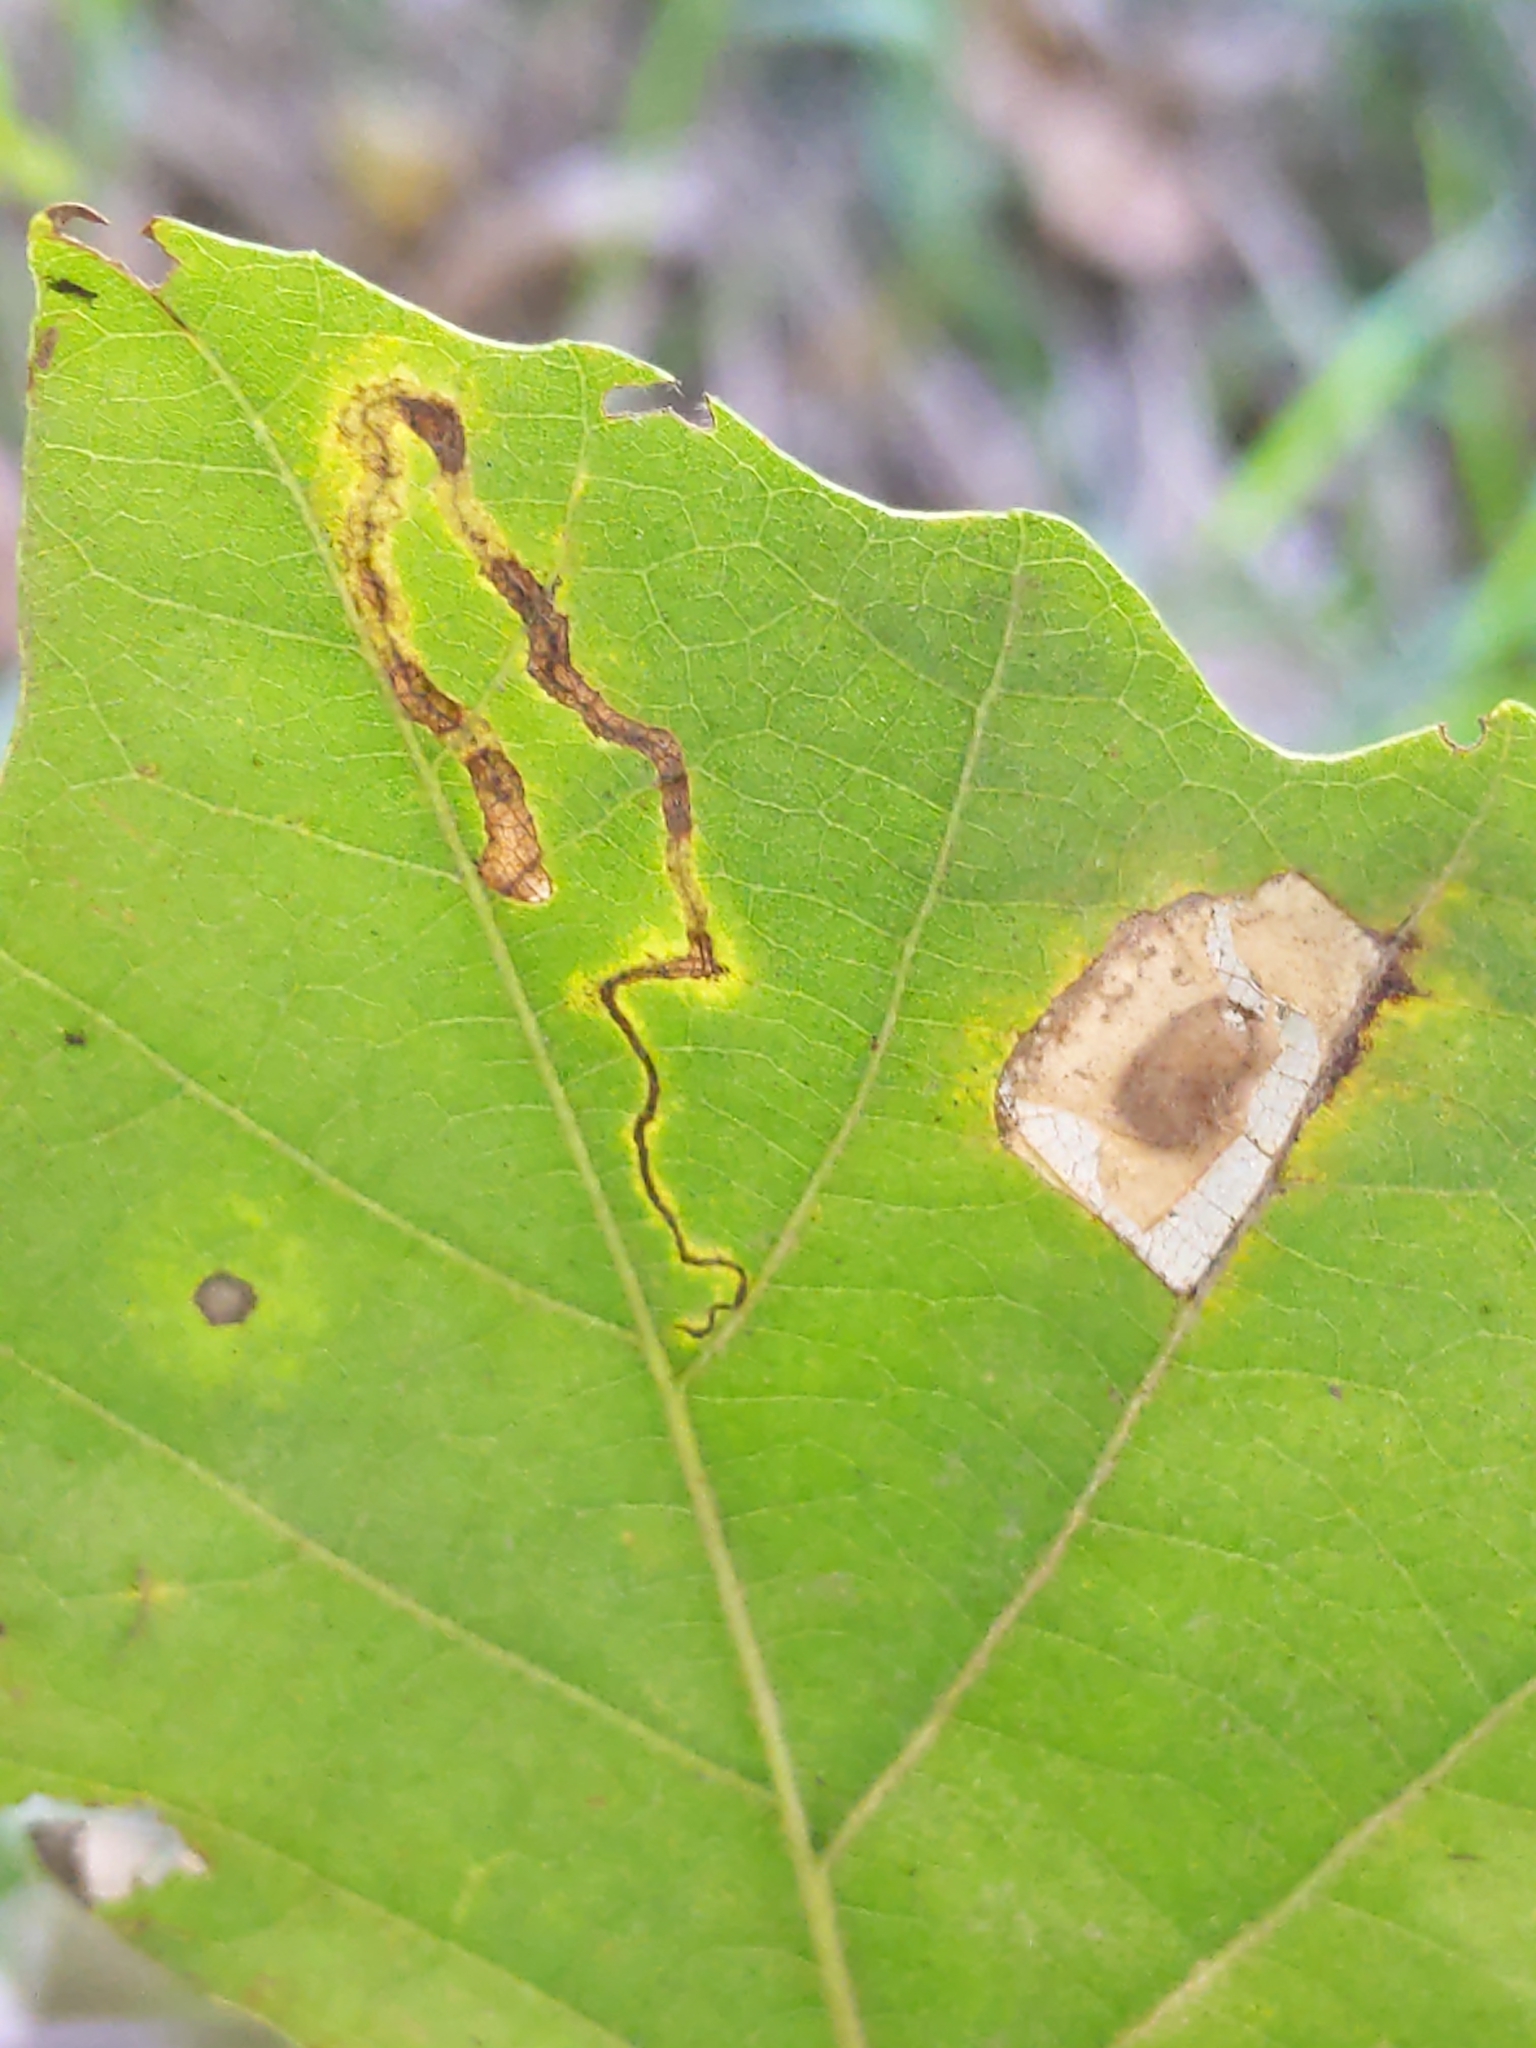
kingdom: Animalia
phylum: Arthropoda
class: Insecta
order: Lepidoptera
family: Gracillariidae
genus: Phyllonorycter
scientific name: Phyllonorycter basistrigella
